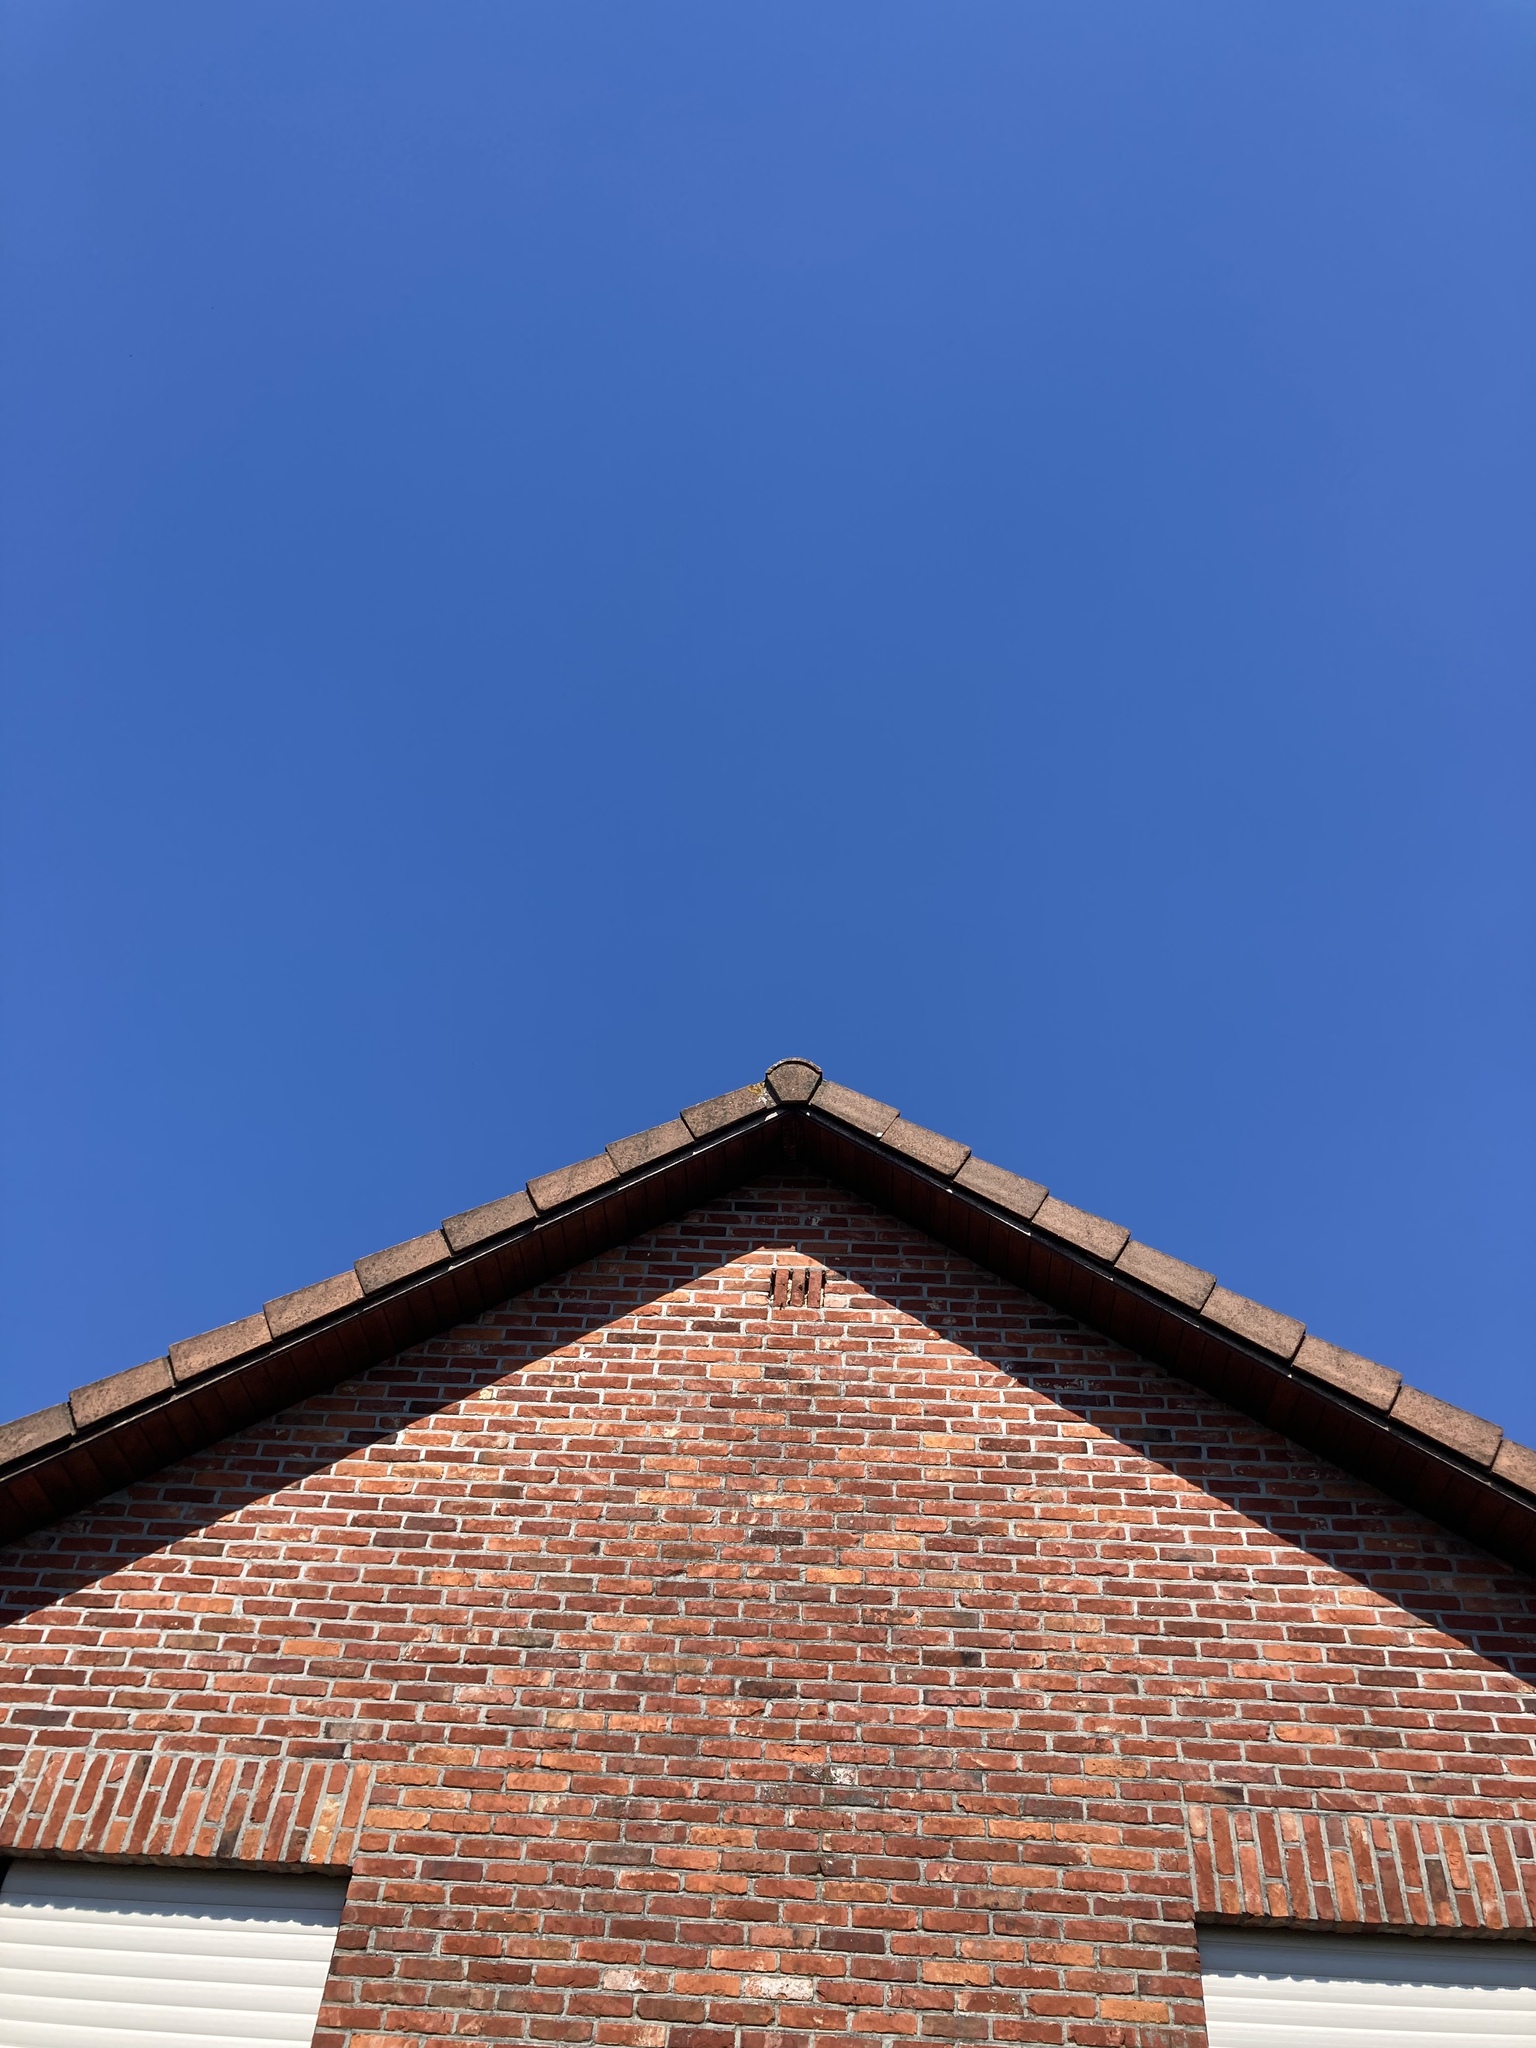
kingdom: Animalia
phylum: Arthropoda
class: Insecta
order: Hymenoptera
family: Vespidae
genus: Vespa
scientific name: Vespa velutina
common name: Asian hornet
